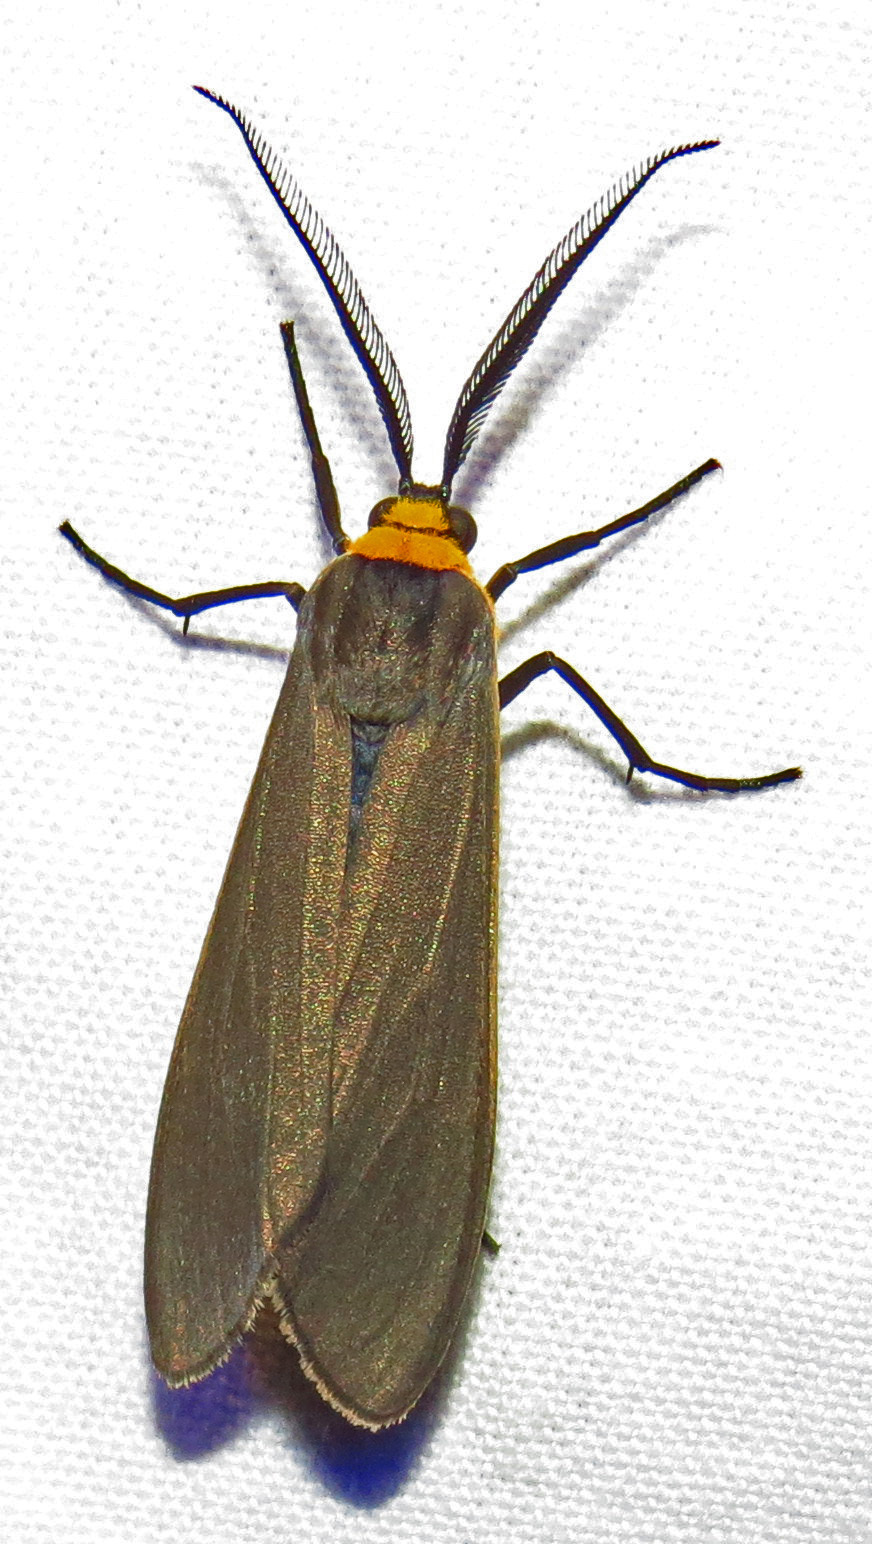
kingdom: Animalia
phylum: Arthropoda
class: Insecta
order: Lepidoptera
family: Erebidae
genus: Cisseps
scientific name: Cisseps fulvicollis
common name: Yellow-collared scape moth
